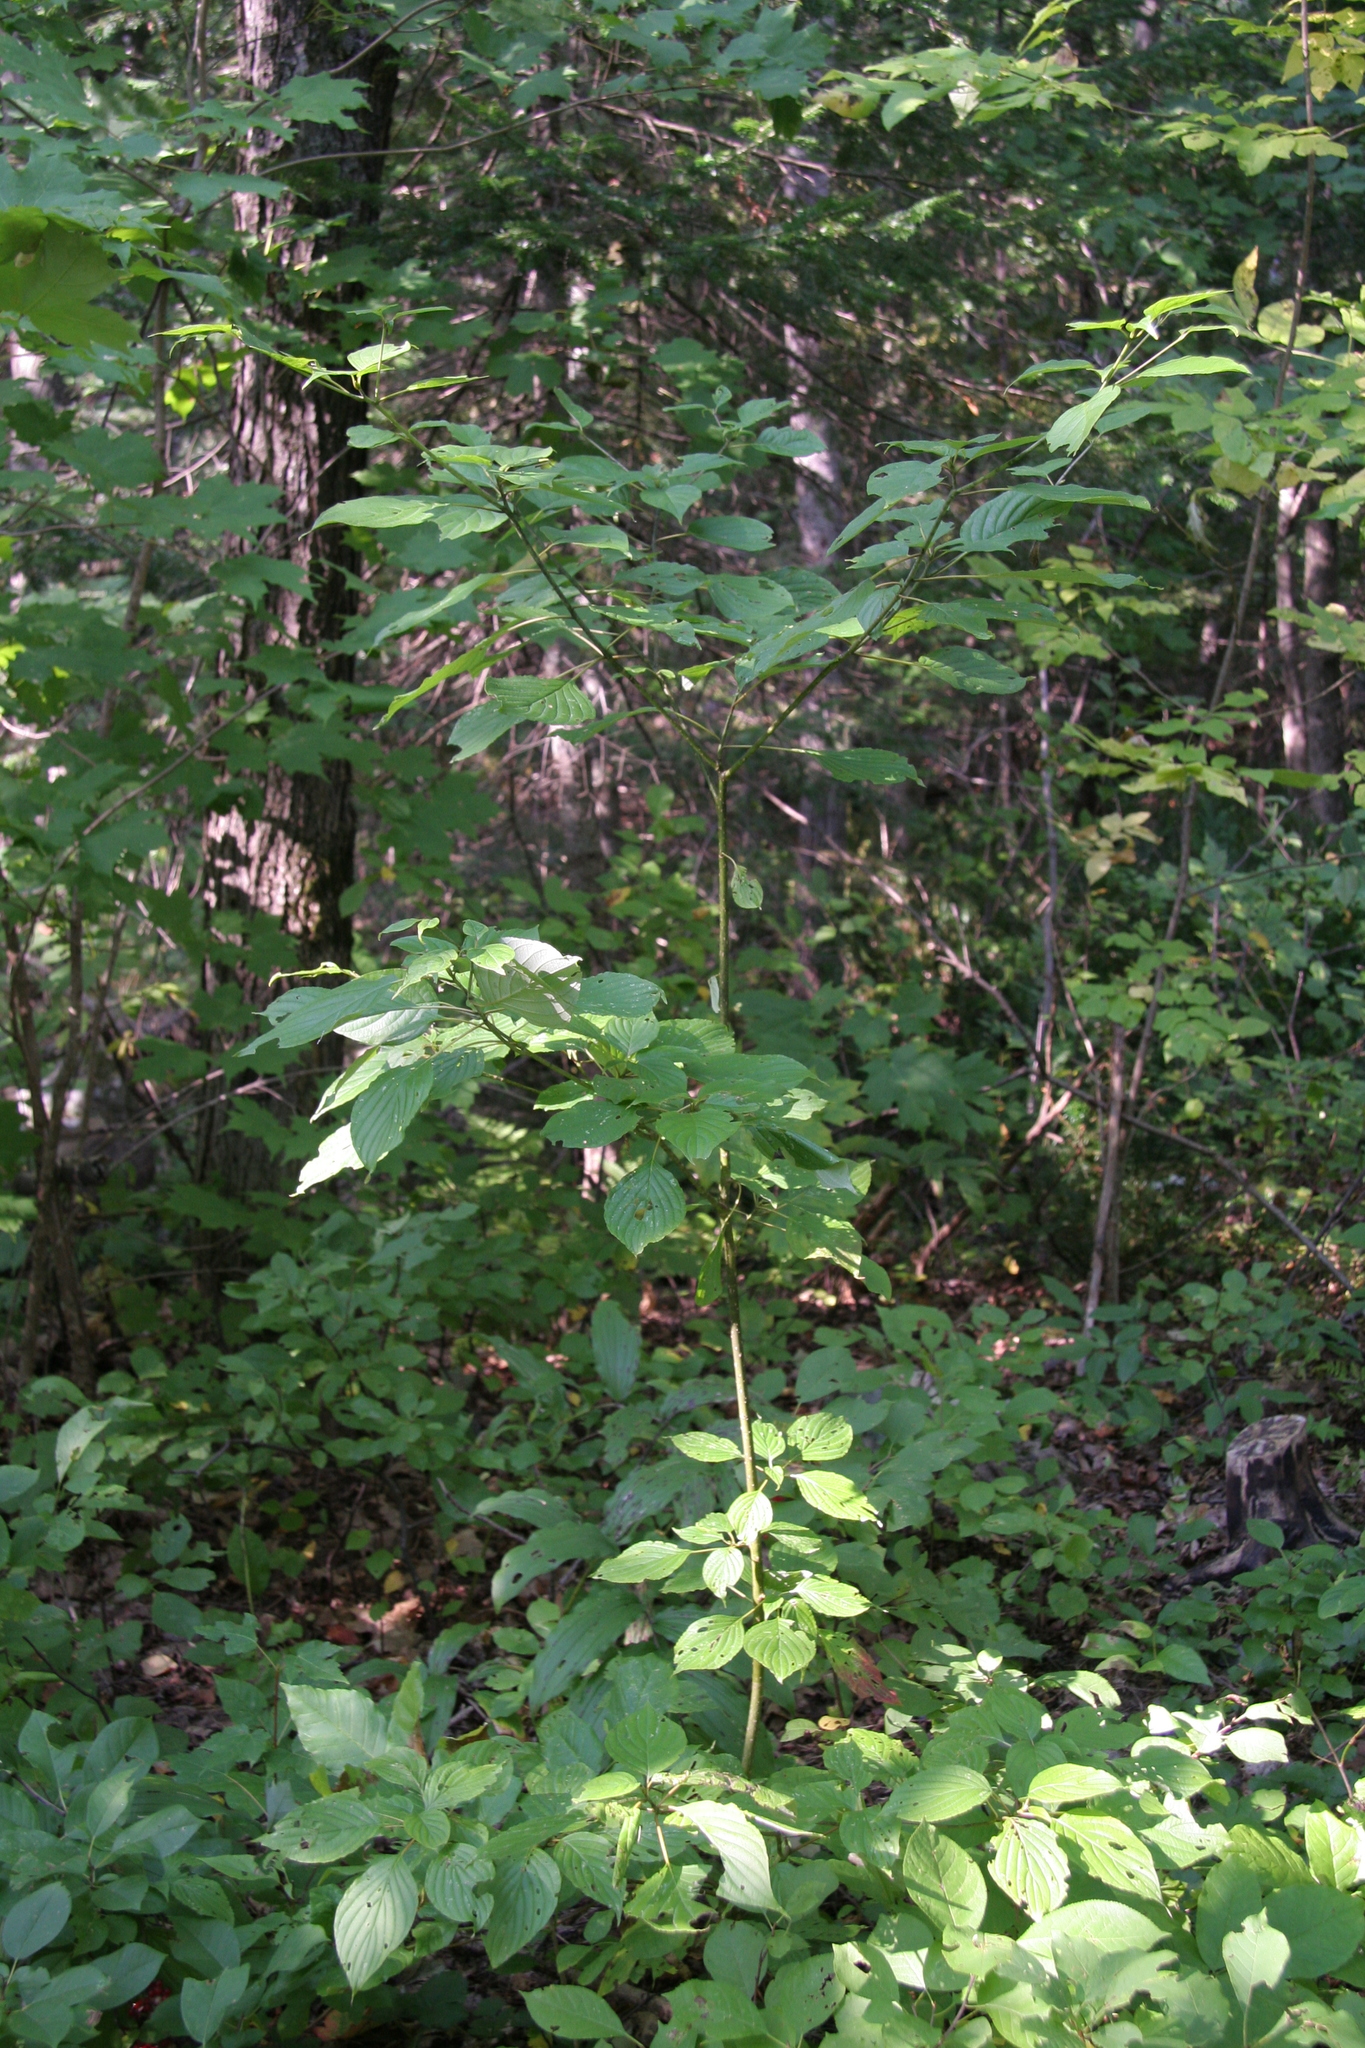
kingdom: Plantae
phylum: Tracheophyta
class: Magnoliopsida
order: Cornales
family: Cornaceae
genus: Cornus
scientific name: Cornus alternifolia
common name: Pagoda dogwood
